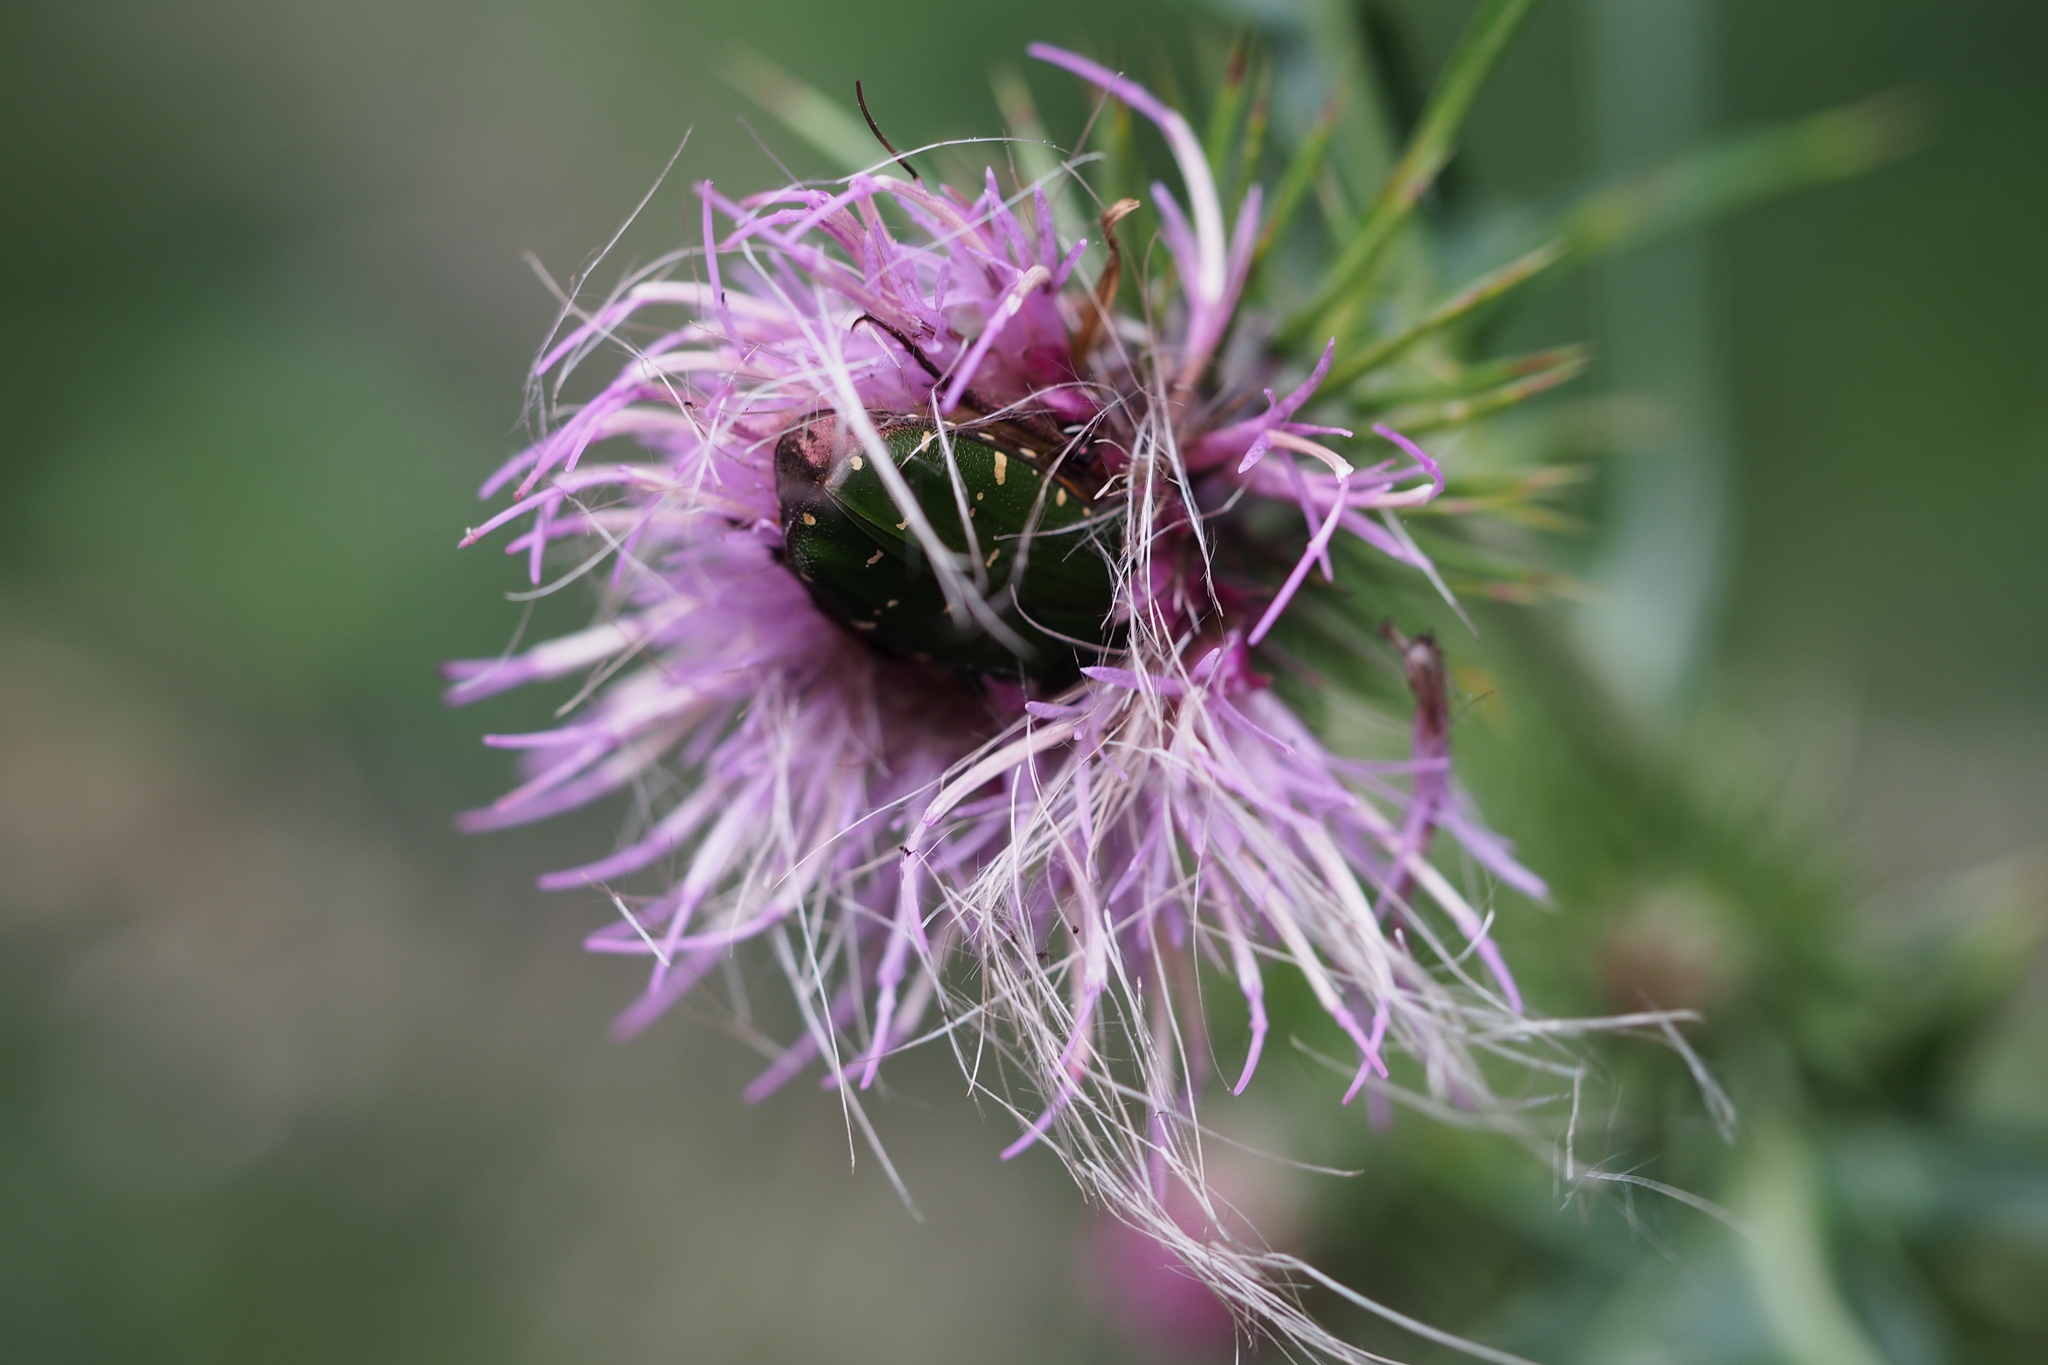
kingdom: Animalia
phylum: Arthropoda
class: Insecta
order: Coleoptera
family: Scarabaeidae
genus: Gametis
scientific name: Gametis jucunda
